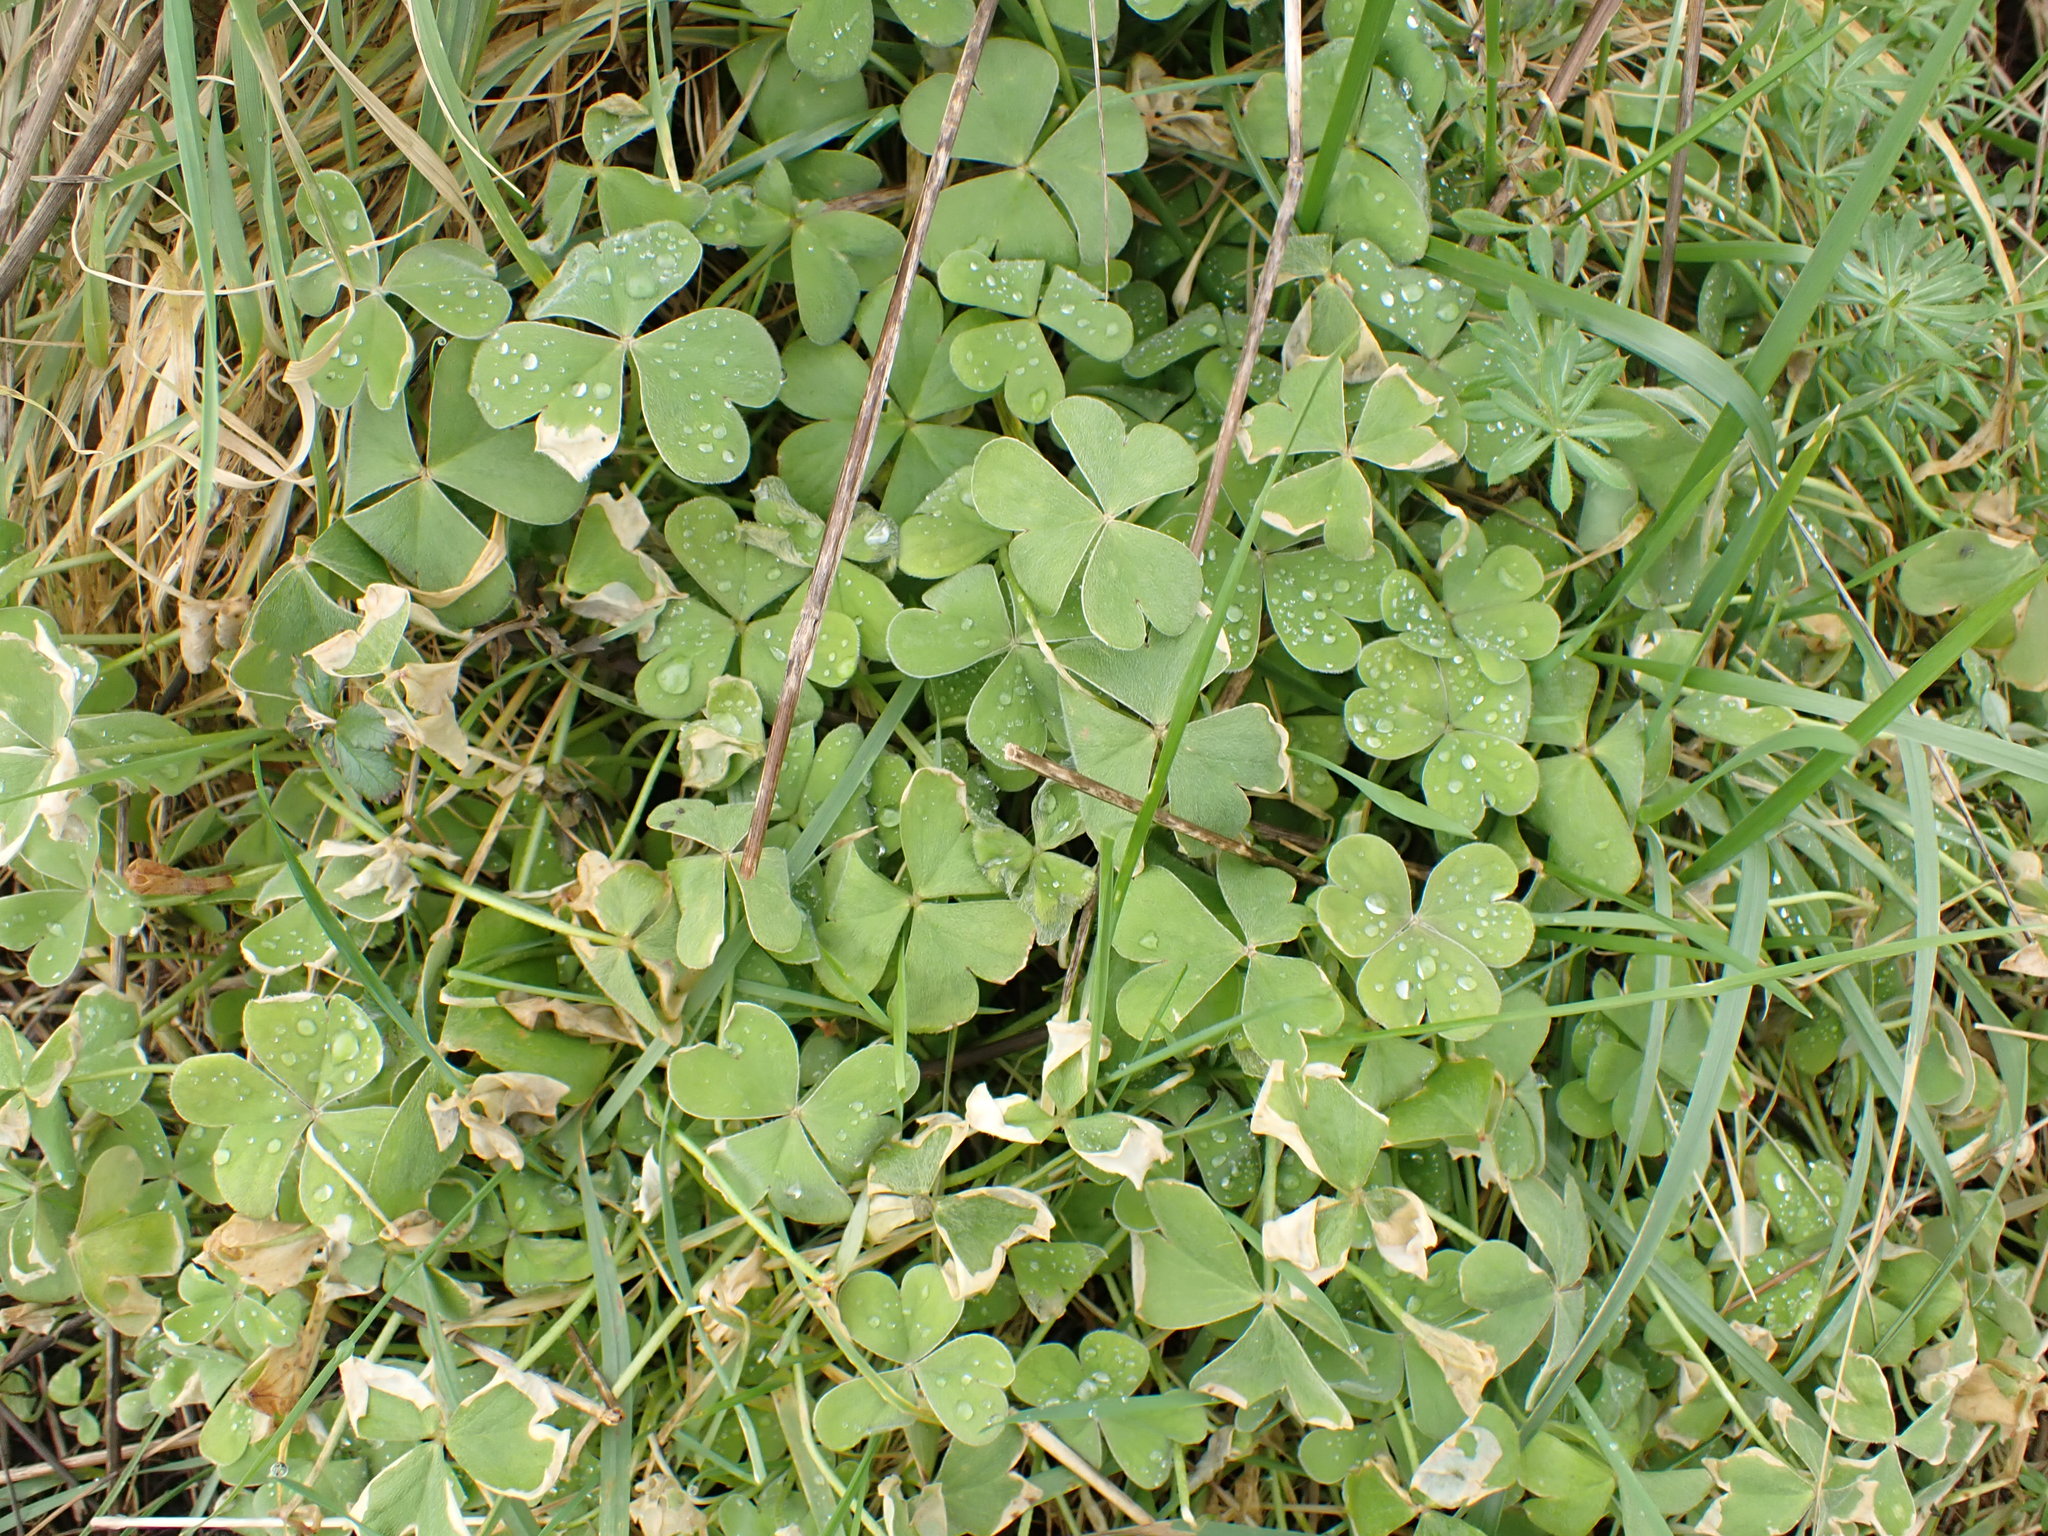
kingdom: Plantae
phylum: Tracheophyta
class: Magnoliopsida
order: Oxalidales
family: Oxalidaceae
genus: Oxalis
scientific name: Oxalis articulata
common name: Pink-sorrel
